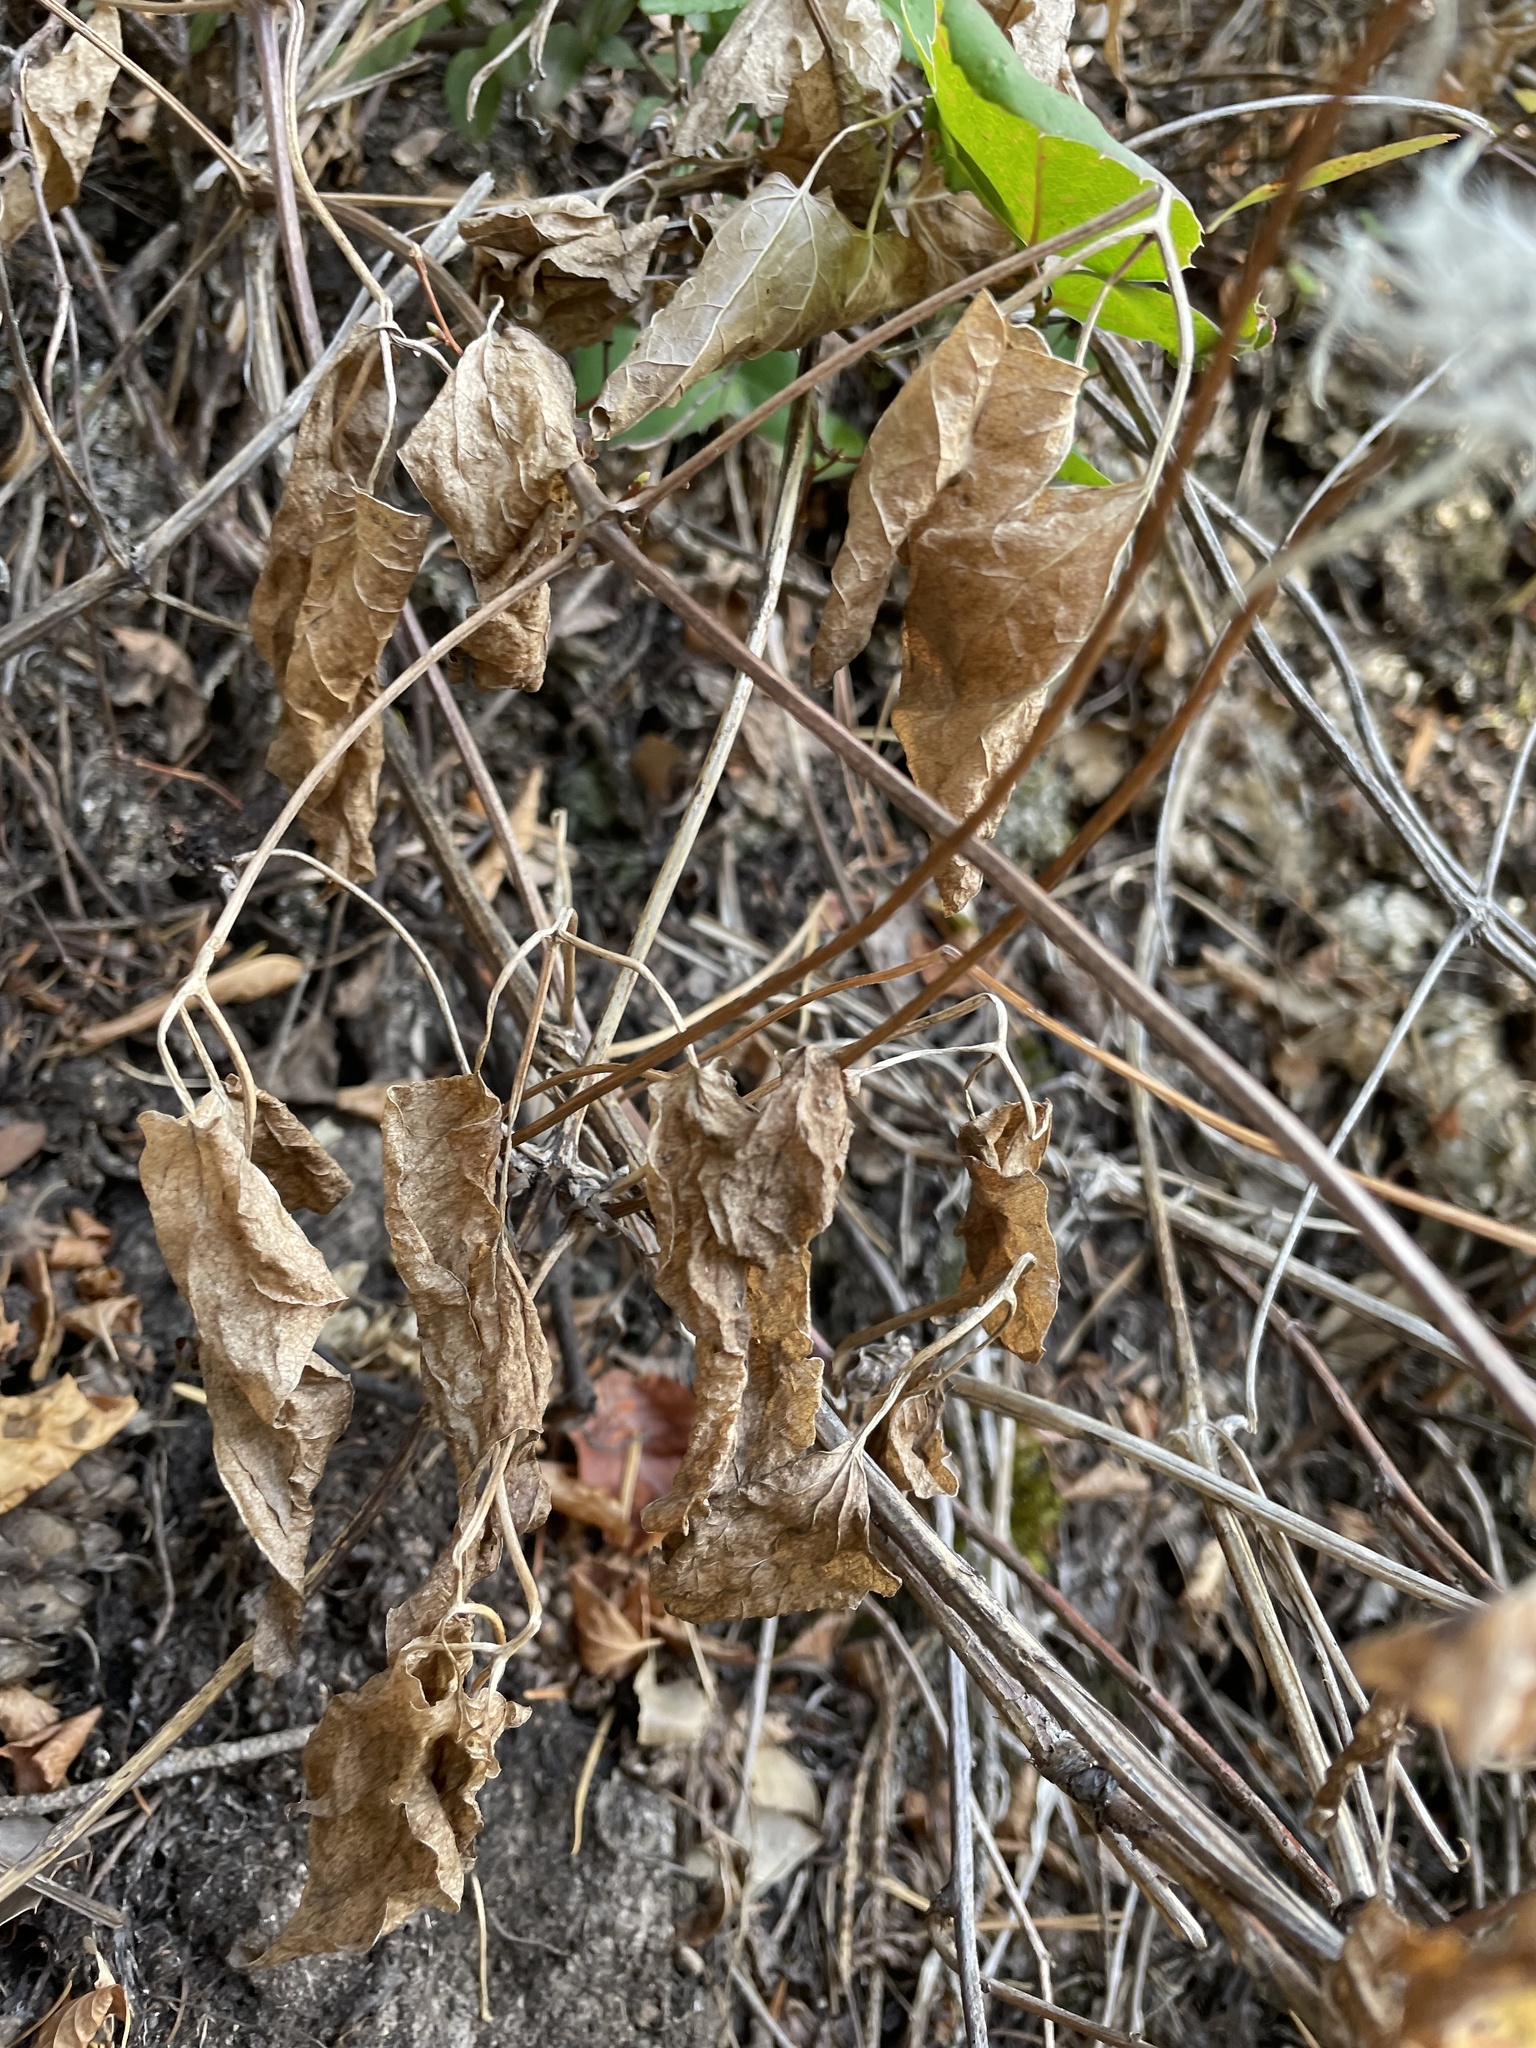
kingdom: Plantae
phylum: Tracheophyta
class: Magnoliopsida
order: Ranunculales
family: Ranunculaceae
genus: Clematis
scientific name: Clematis occidentalis
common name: Purple clematis
